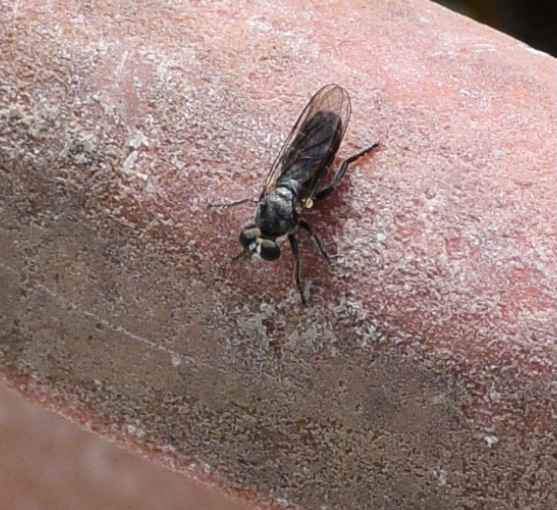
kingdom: Animalia
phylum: Arthropoda
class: Insecta
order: Diptera
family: Asilidae
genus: Atomosia
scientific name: Atomosia puella
